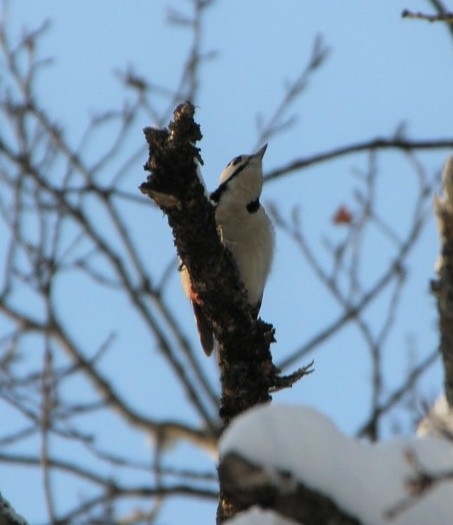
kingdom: Animalia
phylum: Chordata
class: Aves
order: Piciformes
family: Picidae
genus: Dendrocopos
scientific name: Dendrocopos major
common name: Great spotted woodpecker
